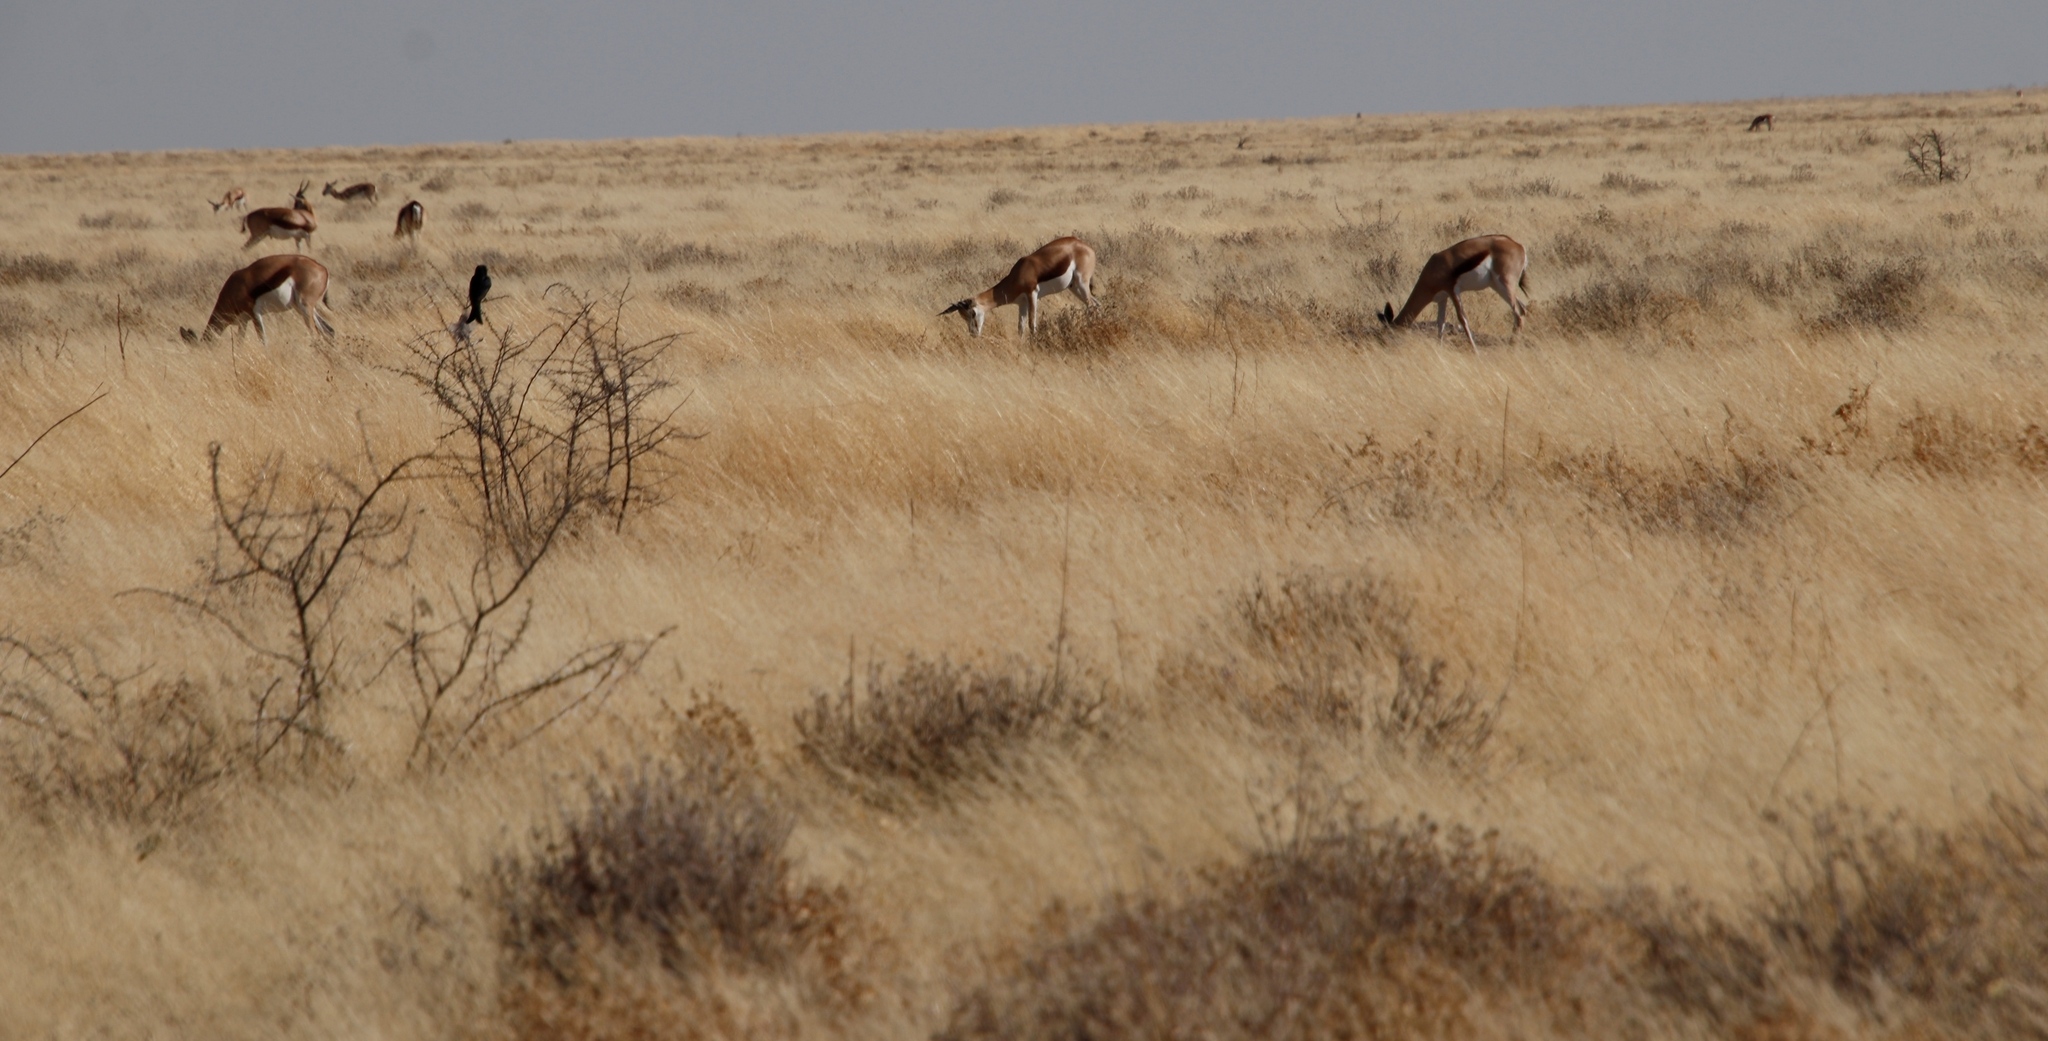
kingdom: Animalia
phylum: Chordata
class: Mammalia
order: Artiodactyla
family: Bovidae
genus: Antidorcas
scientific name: Antidorcas marsupialis
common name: Springbok
